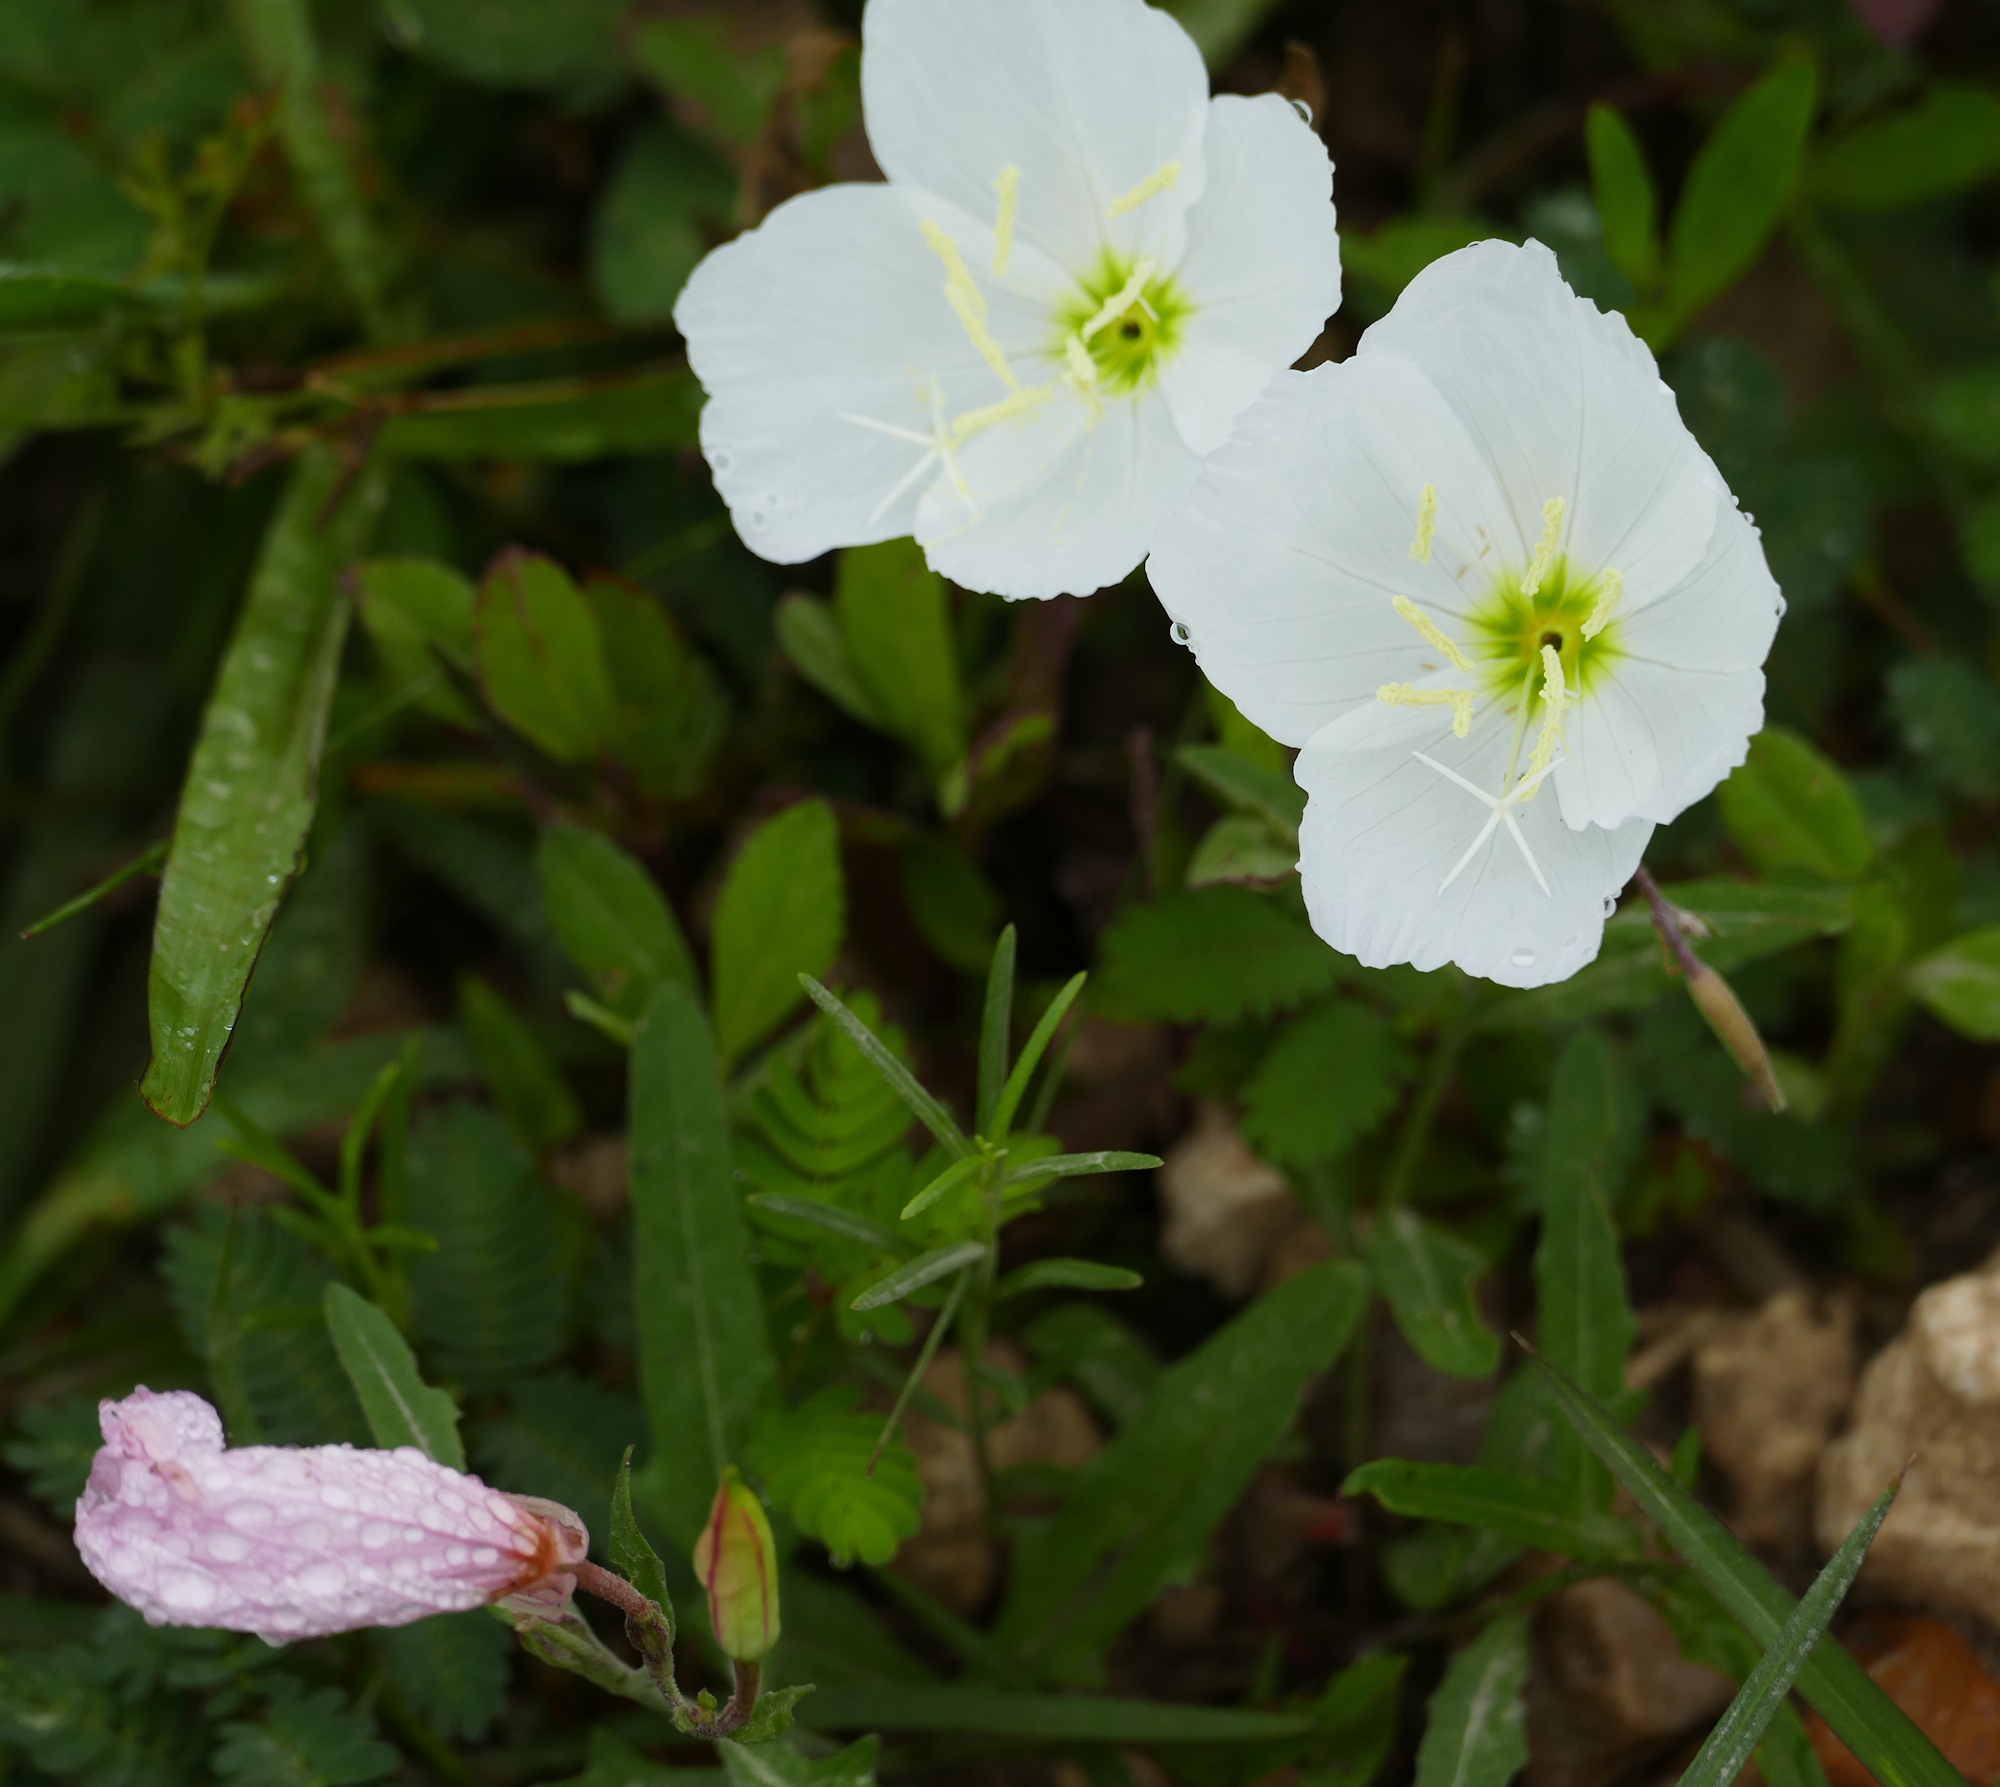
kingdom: Plantae
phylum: Tracheophyta
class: Magnoliopsida
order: Myrtales
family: Onagraceae
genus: Oenothera
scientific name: Oenothera speciosa
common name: White evening-primrose
